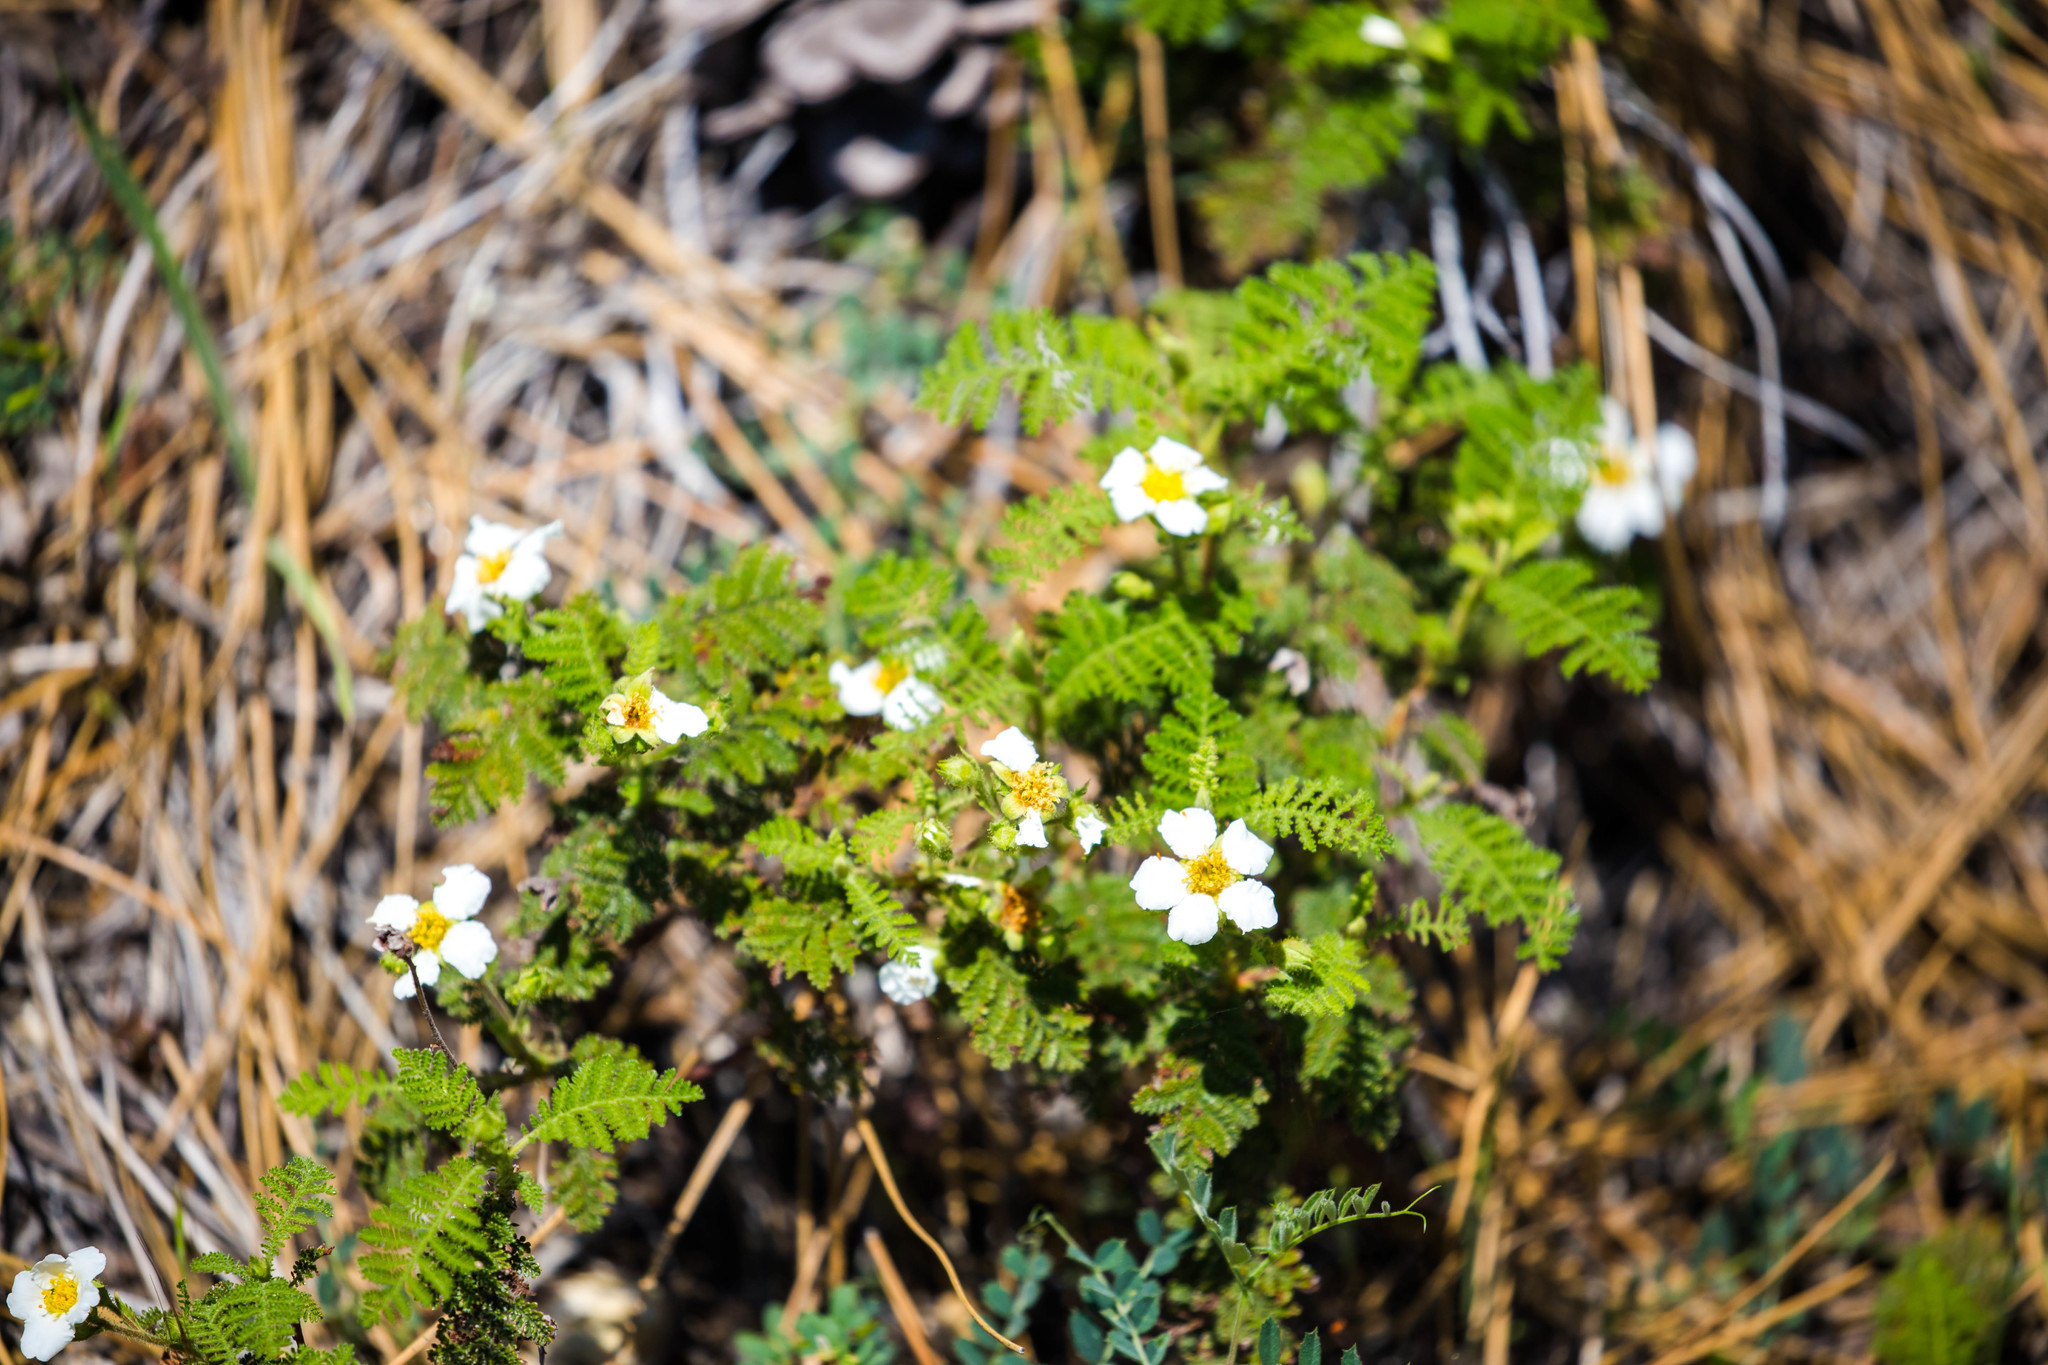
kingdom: Plantae
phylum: Tracheophyta
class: Magnoliopsida
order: Rosales
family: Rosaceae
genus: Chamaebatia
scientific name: Chamaebatia foliolosa
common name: Mountain misery
